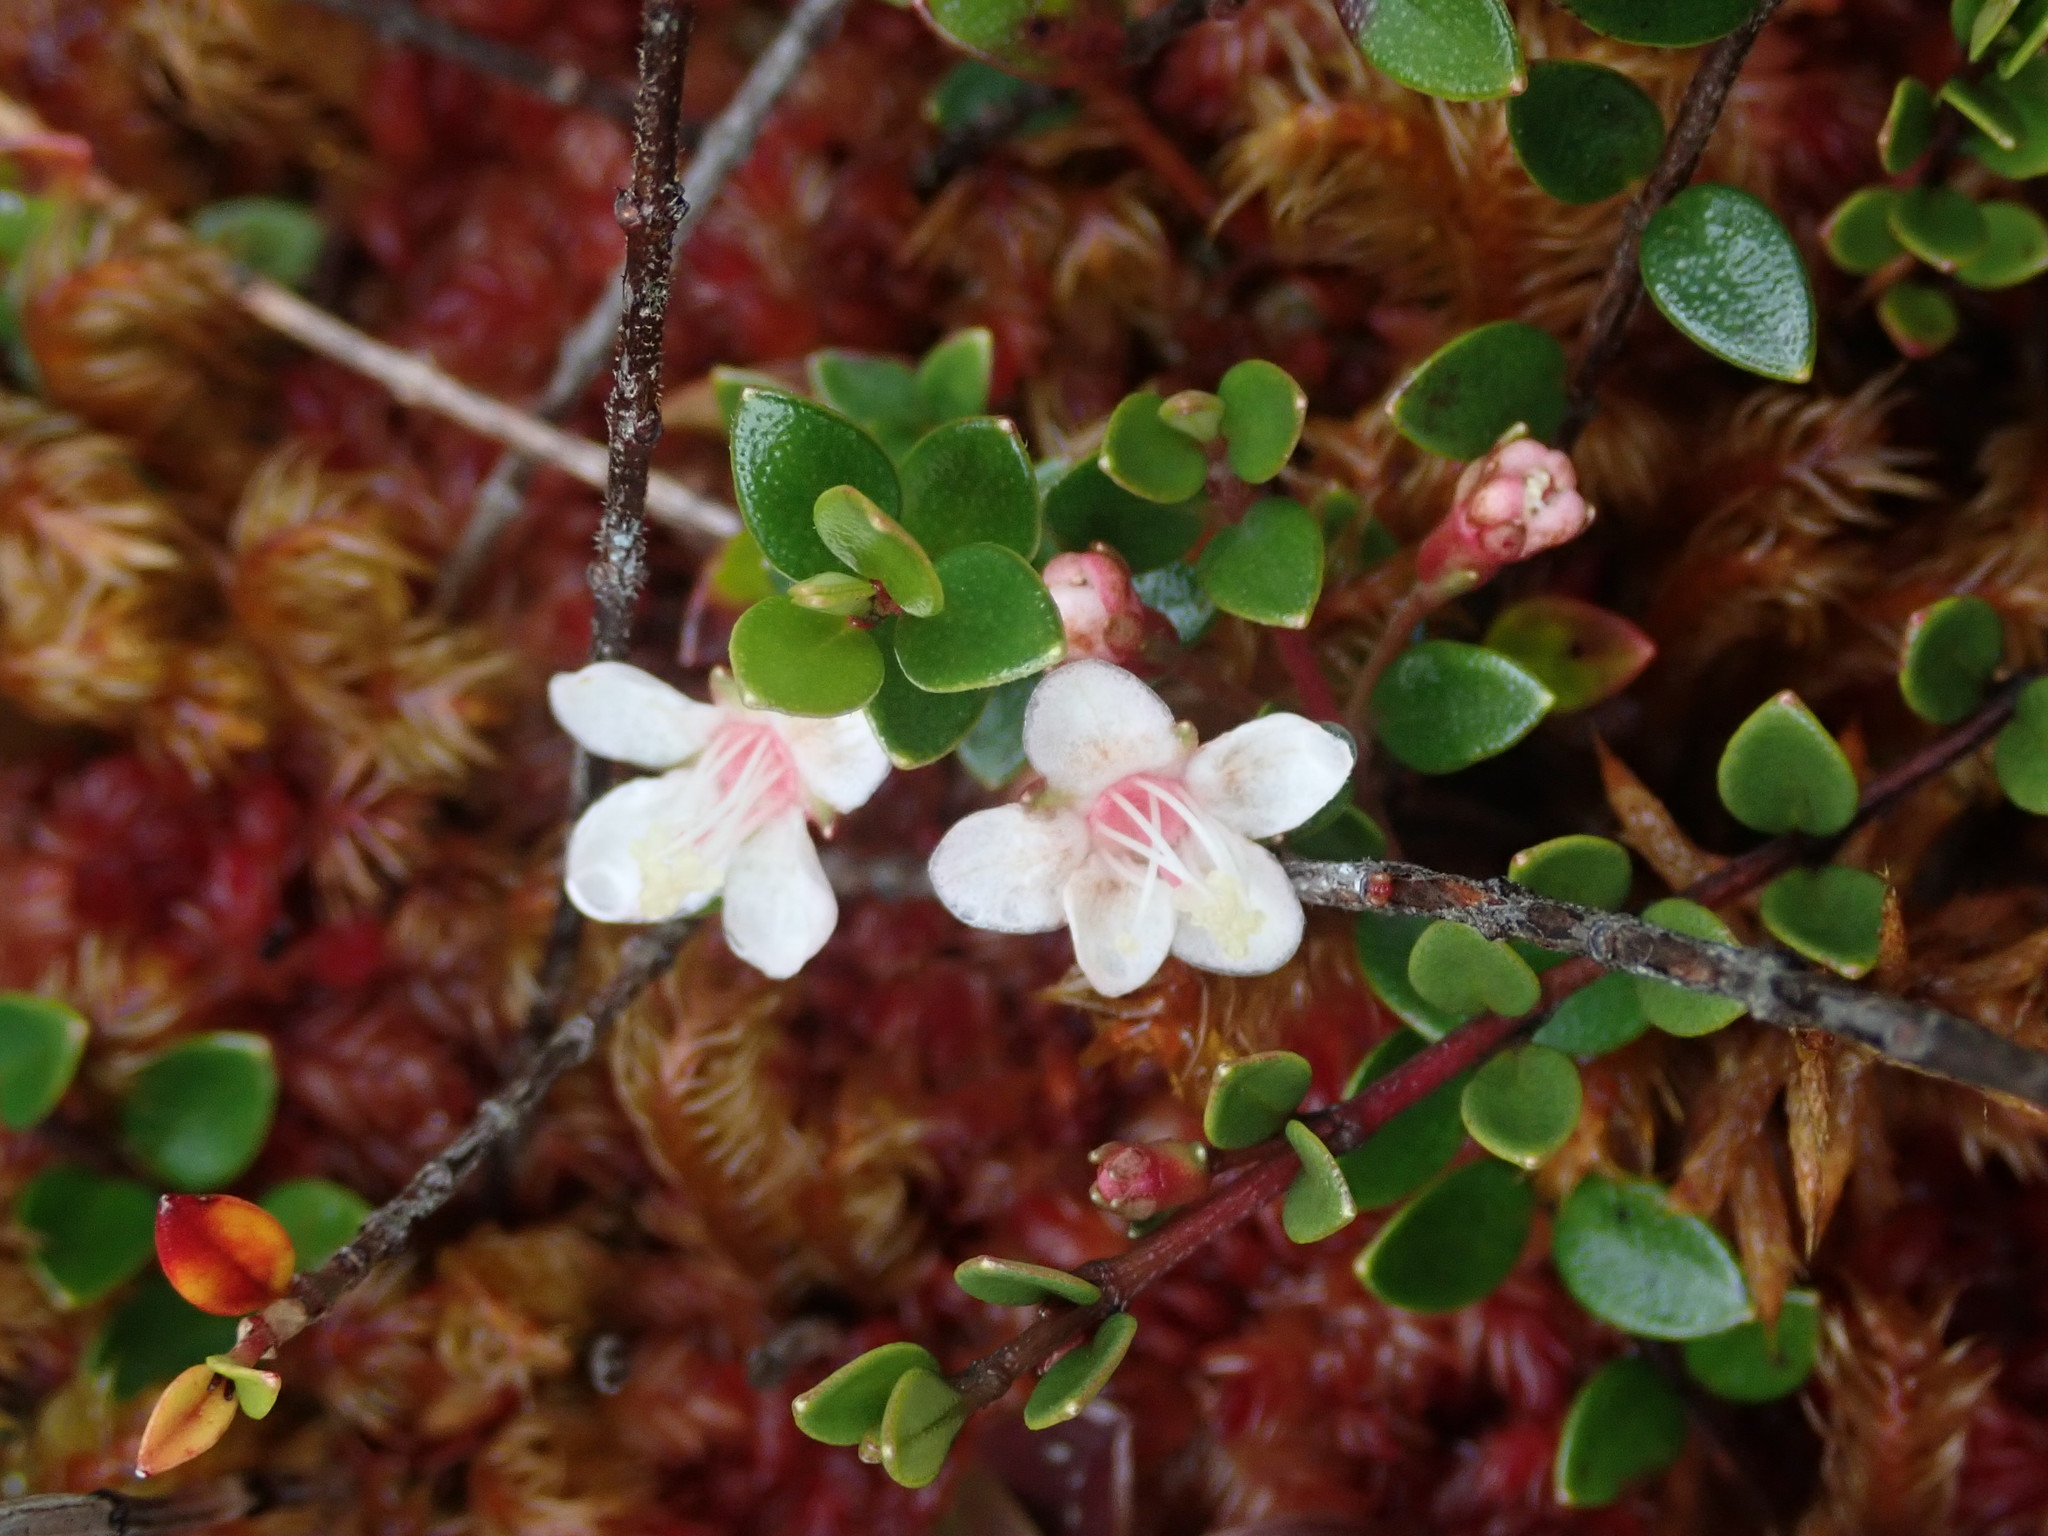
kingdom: Plantae
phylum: Tracheophyta
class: Magnoliopsida
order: Myrtales
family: Myrtaceae
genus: Myrteola
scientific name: Myrteola nummularia
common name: Cranberry-myrtle
